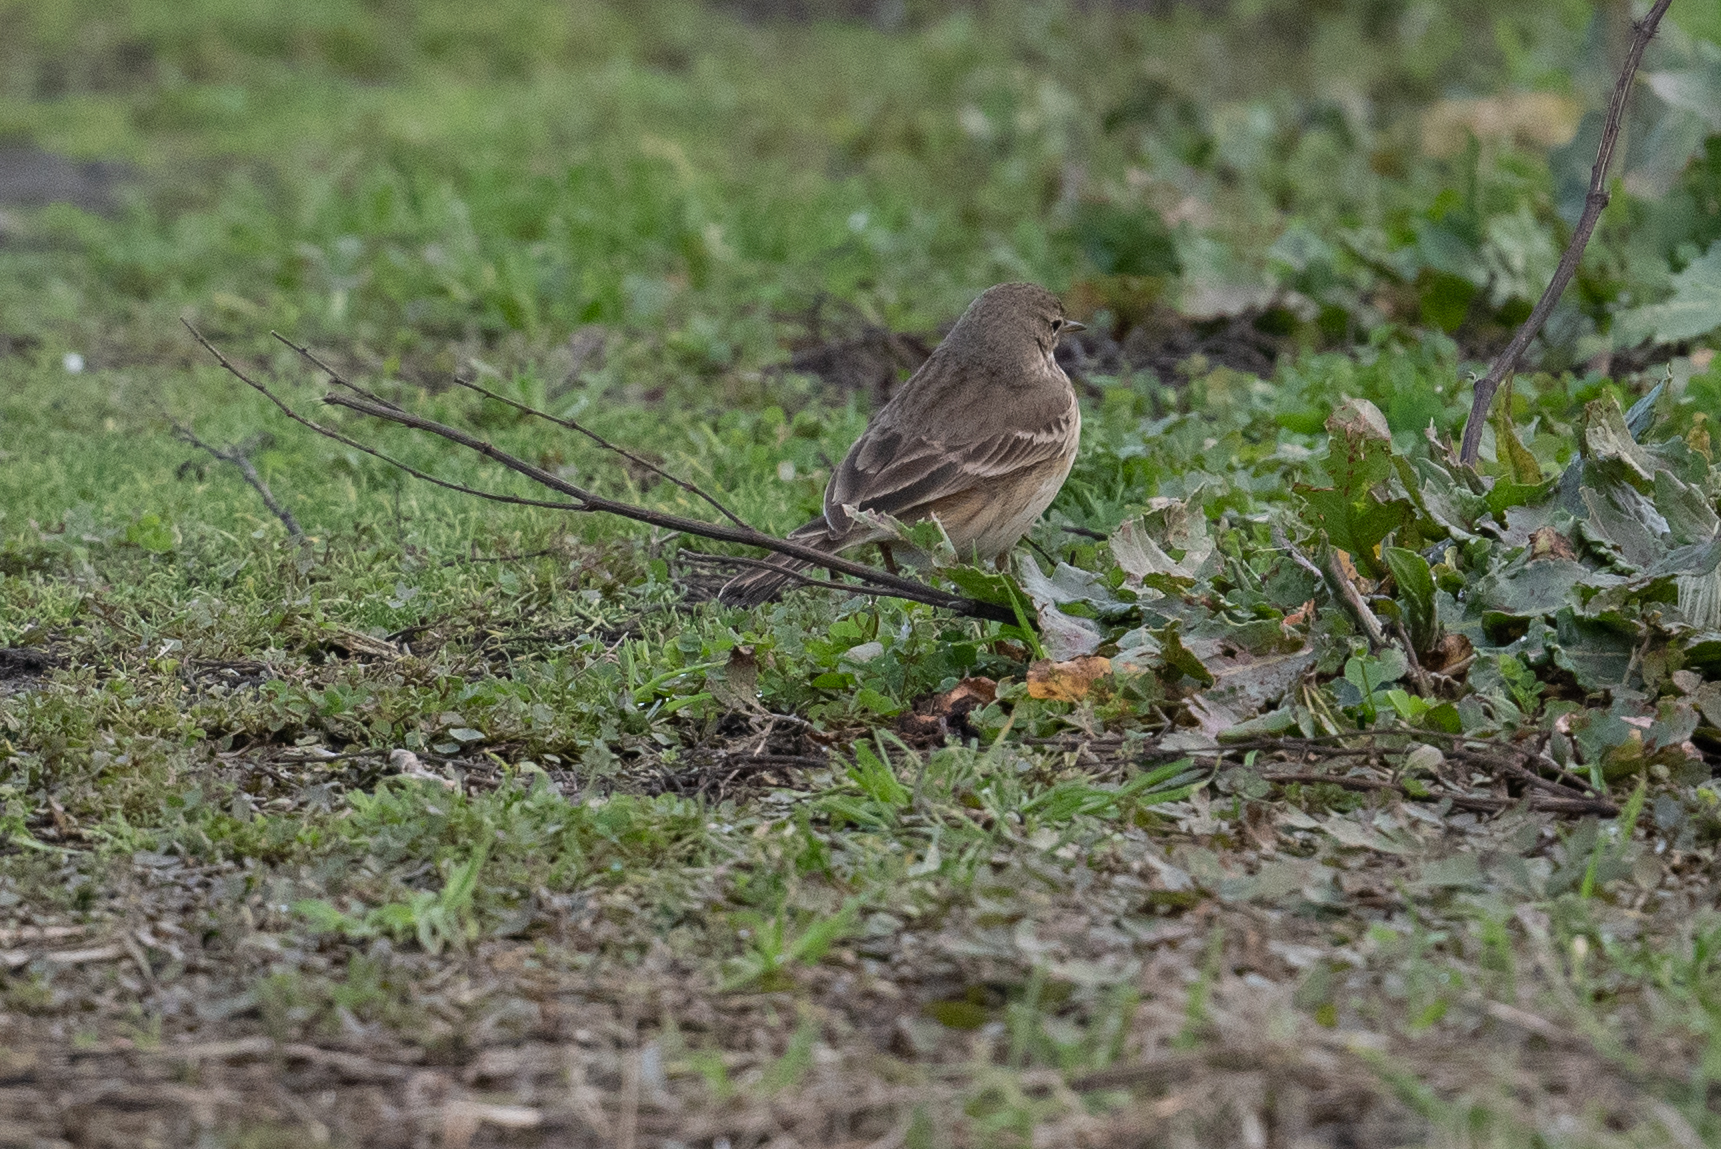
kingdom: Animalia
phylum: Chordata
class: Aves
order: Passeriformes
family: Motacillidae
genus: Anthus
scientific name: Anthus rubescens
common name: Buff-bellied pipit
